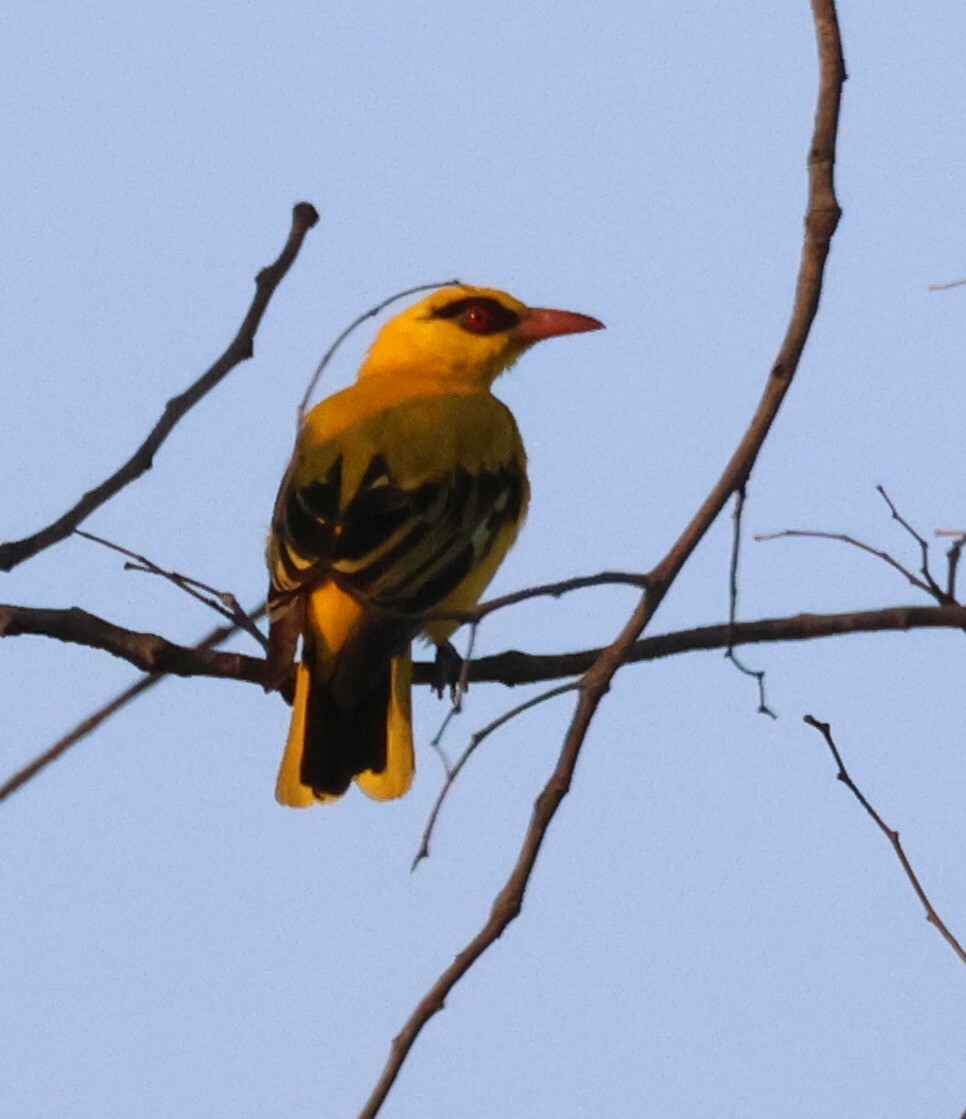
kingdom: Animalia
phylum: Chordata
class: Aves
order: Passeriformes
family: Oriolidae
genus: Oriolus
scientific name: Oriolus auratus
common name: African golden oriole
